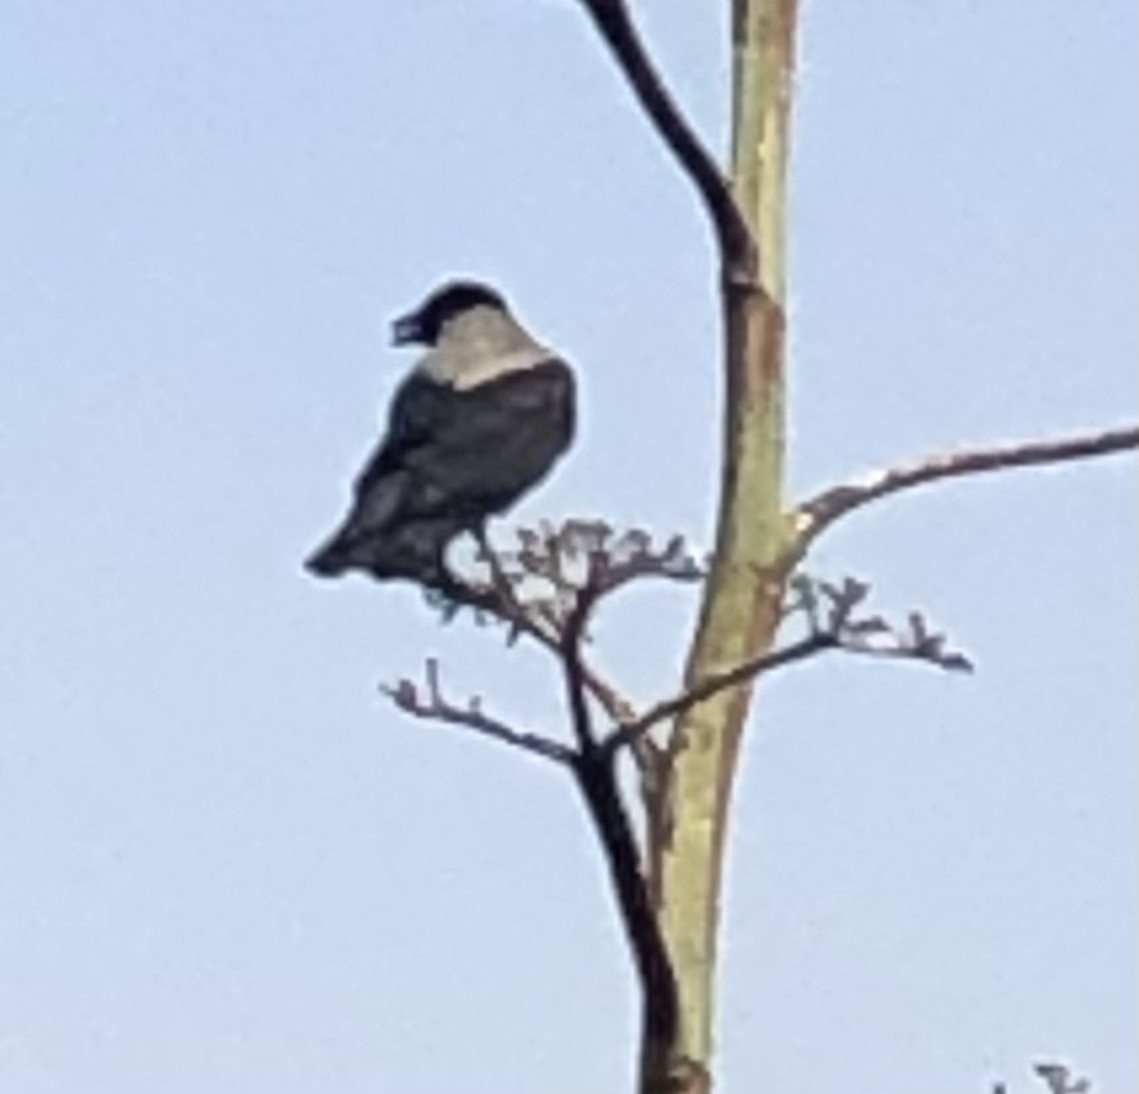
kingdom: Animalia
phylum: Chordata
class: Aves
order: Passeriformes
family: Corvidae
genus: Corvus
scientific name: Corvus cornix
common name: Hooded crow
